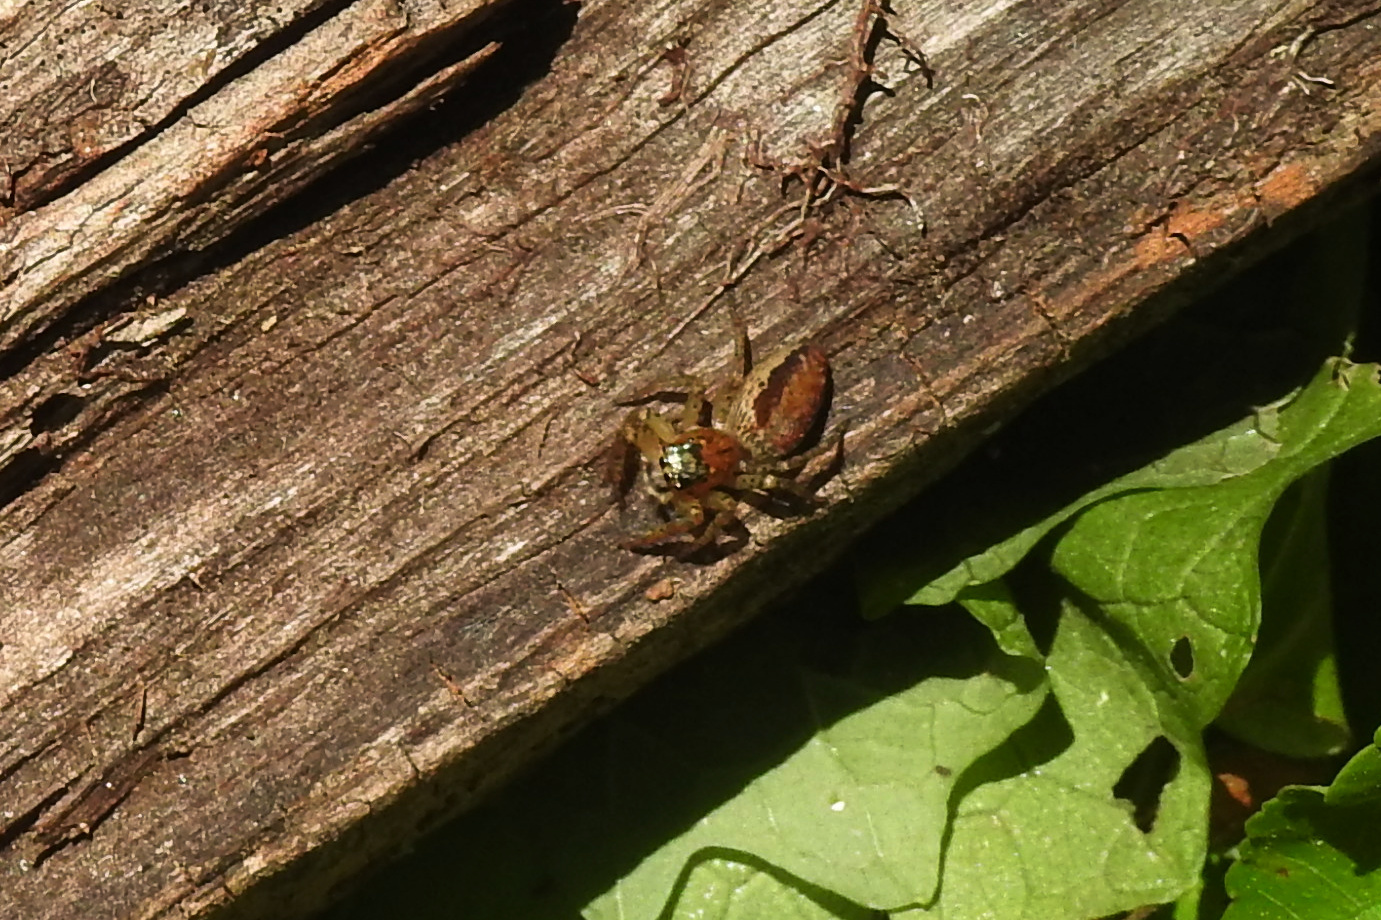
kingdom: Animalia
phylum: Arthropoda
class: Arachnida
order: Araneae
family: Salticidae
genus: Maevia
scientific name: Maevia inclemens
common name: Dimorphic jumper
